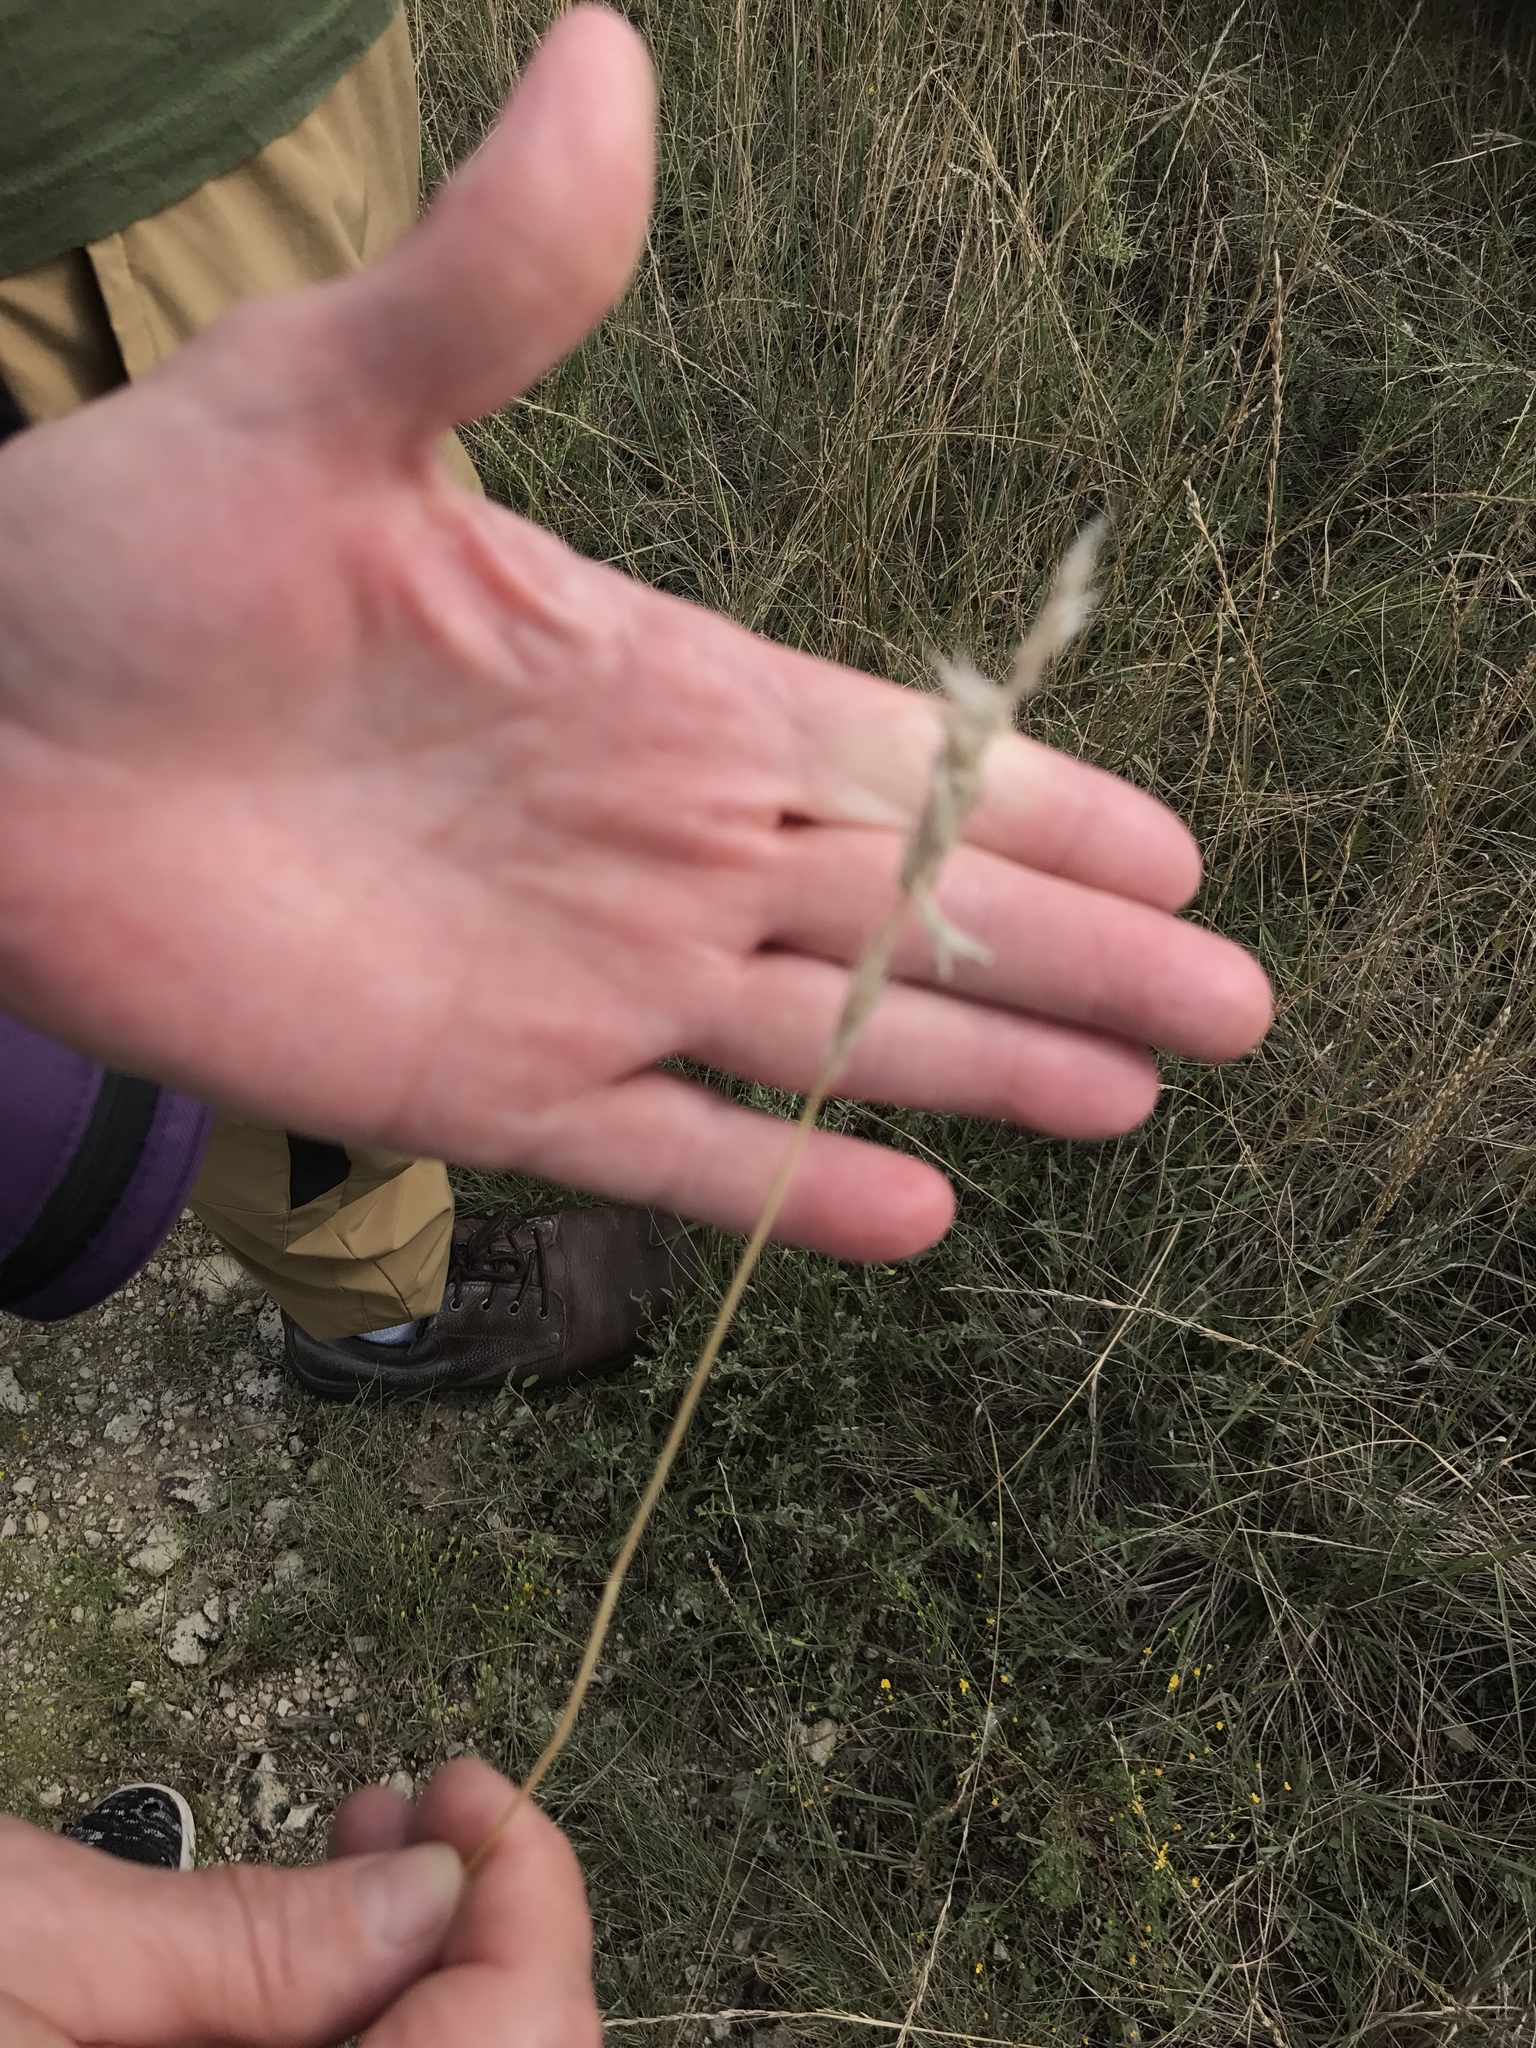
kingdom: Plantae
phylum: Tracheophyta
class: Liliopsida
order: Poales
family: Poaceae
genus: Bothriochloa
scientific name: Bothriochloa torreyana
